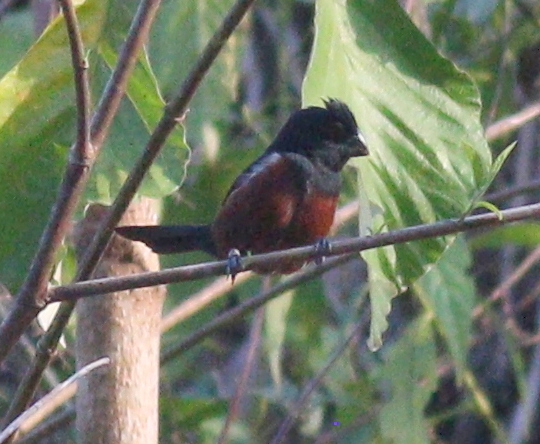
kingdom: Animalia
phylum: Chordata
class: Aves
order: Passeriformes
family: Thraupidae
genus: Sporophila
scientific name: Sporophila angolensis
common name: Chestnut-bellied seed-finch
